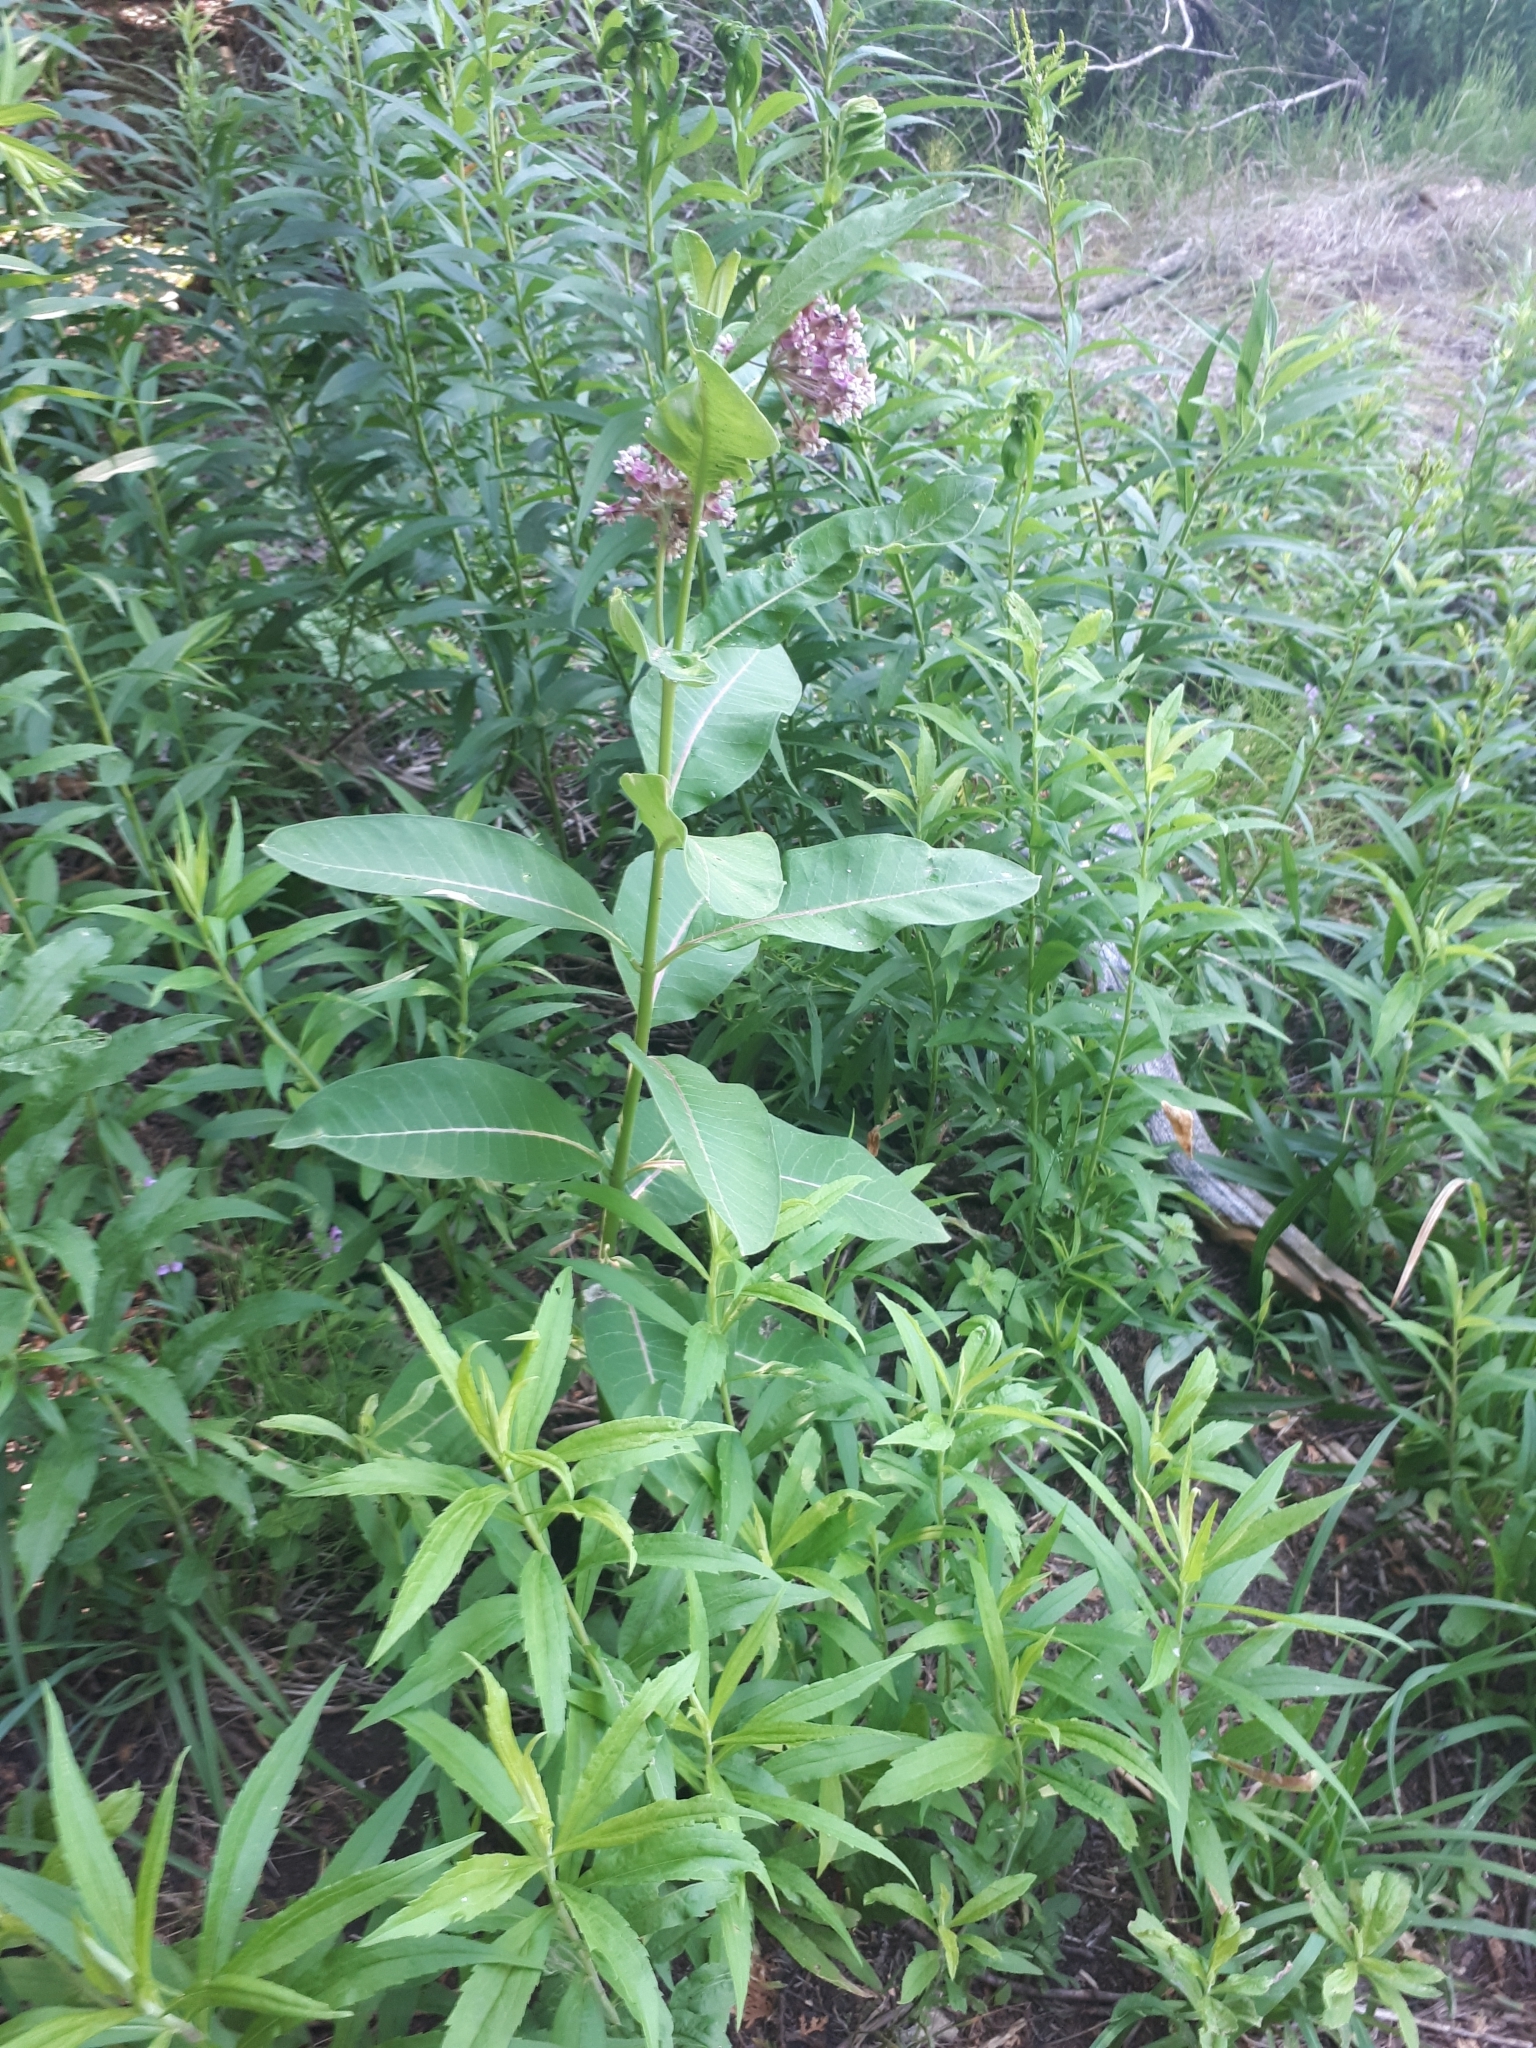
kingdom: Plantae
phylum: Tracheophyta
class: Magnoliopsida
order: Gentianales
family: Apocynaceae
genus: Asclepias
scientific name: Asclepias syriaca
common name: Common milkweed
